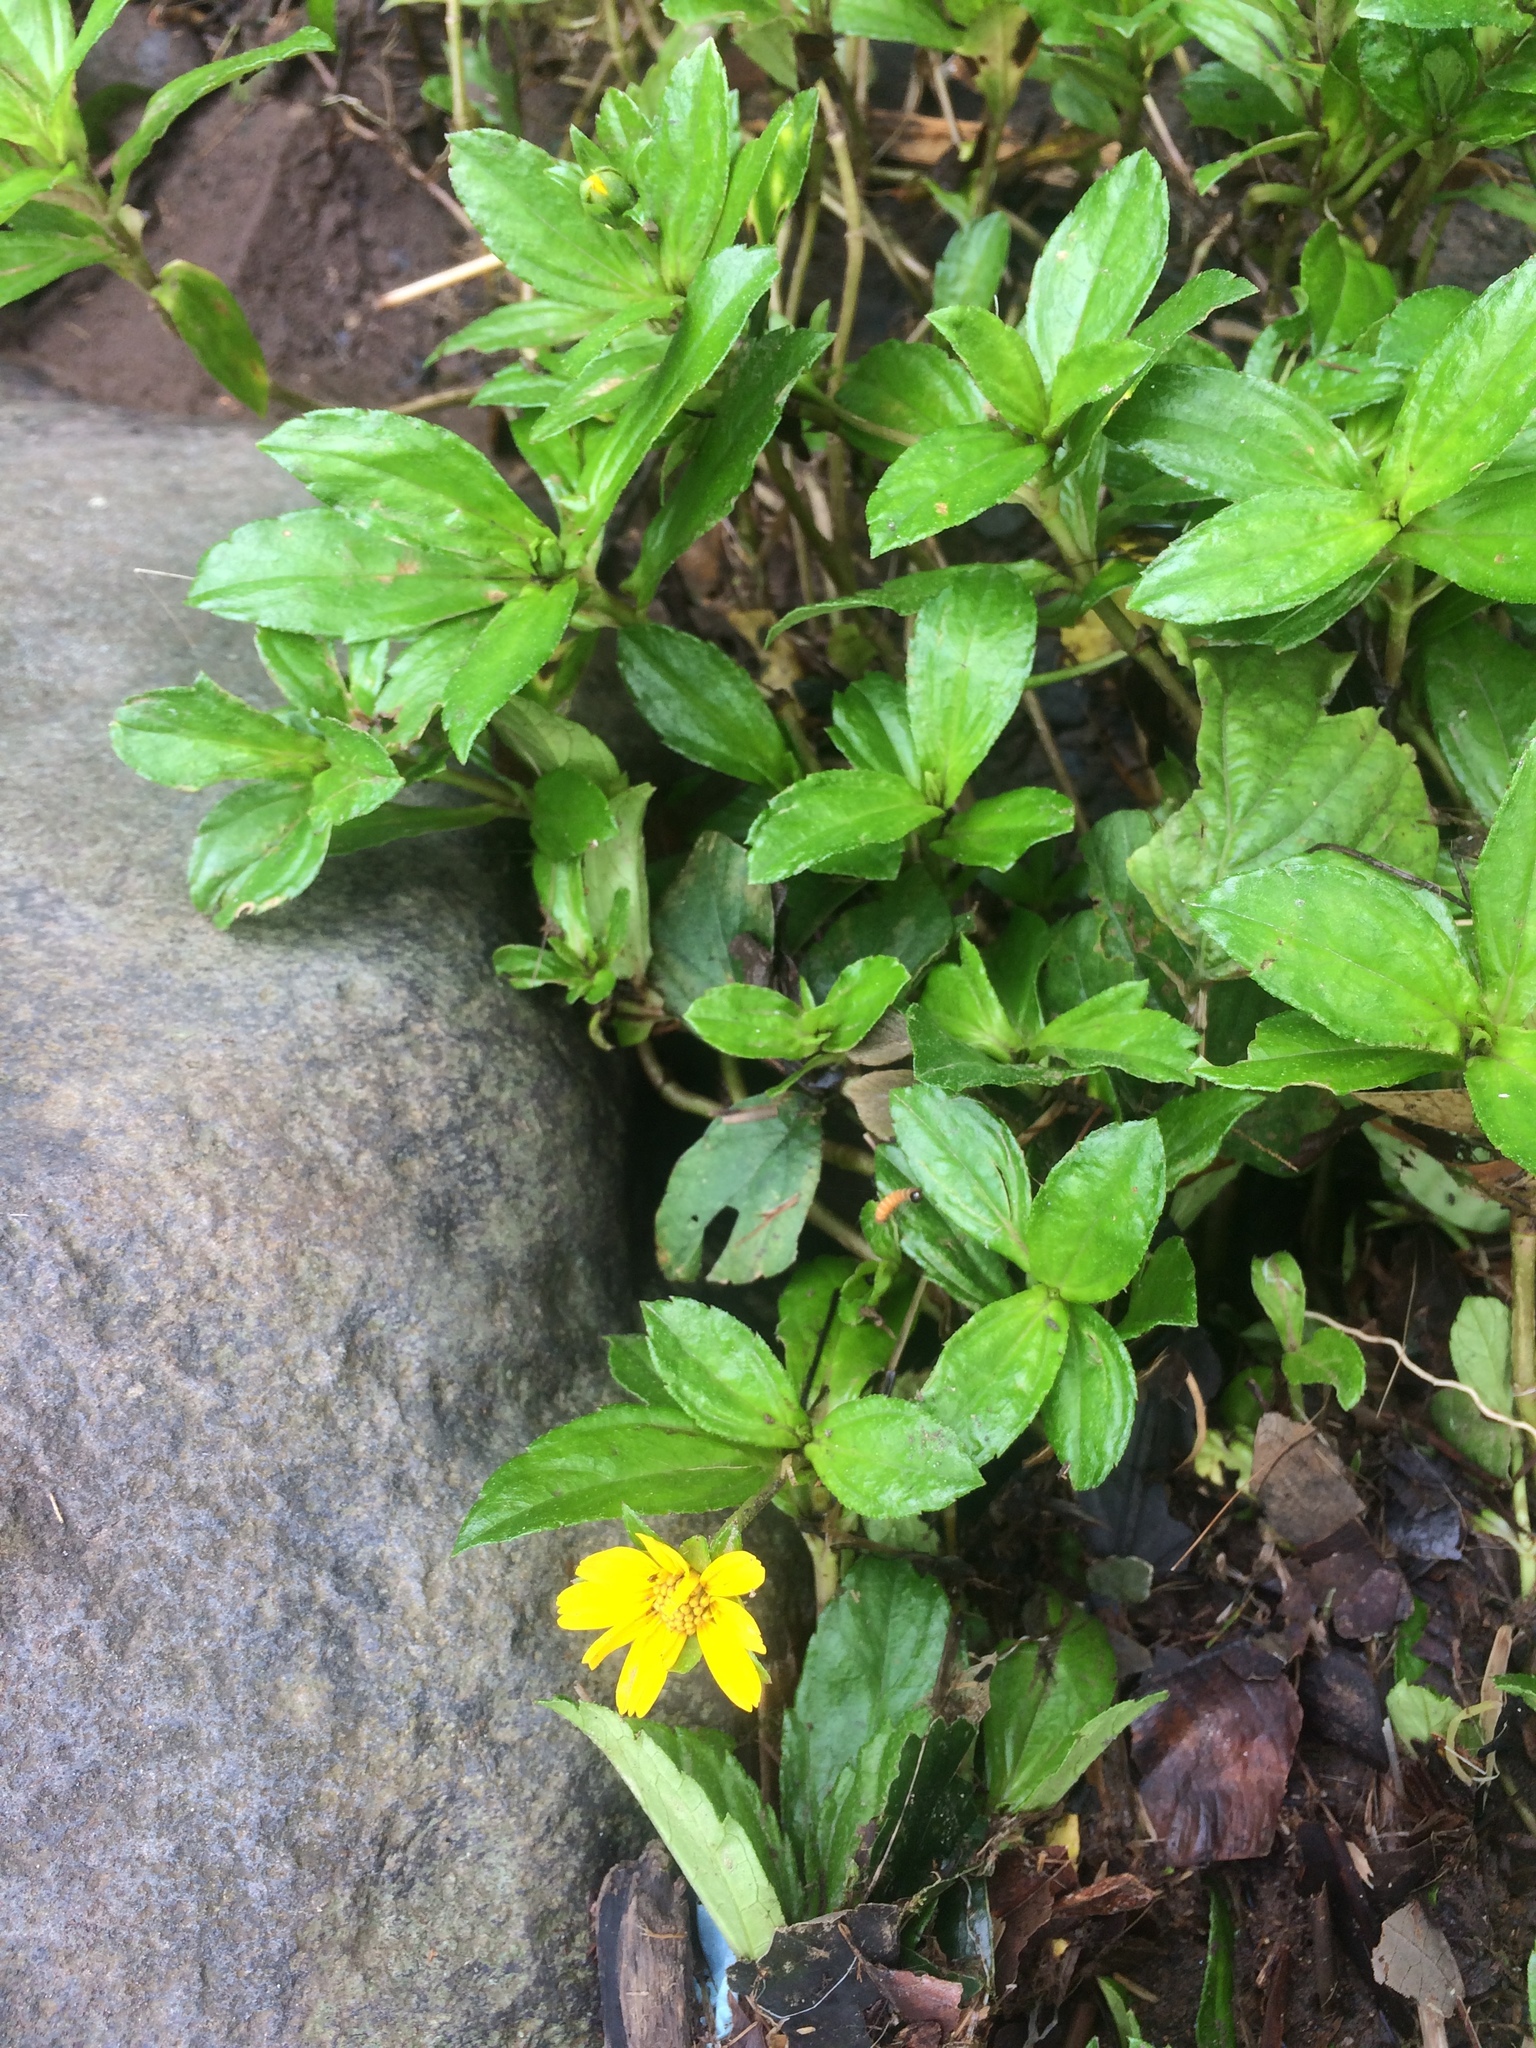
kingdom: Plantae
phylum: Tracheophyta
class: Magnoliopsida
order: Asterales
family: Asteraceae
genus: Sphagneticola
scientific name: Sphagneticola trilobata
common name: Bay biscayne creeping-oxeye
